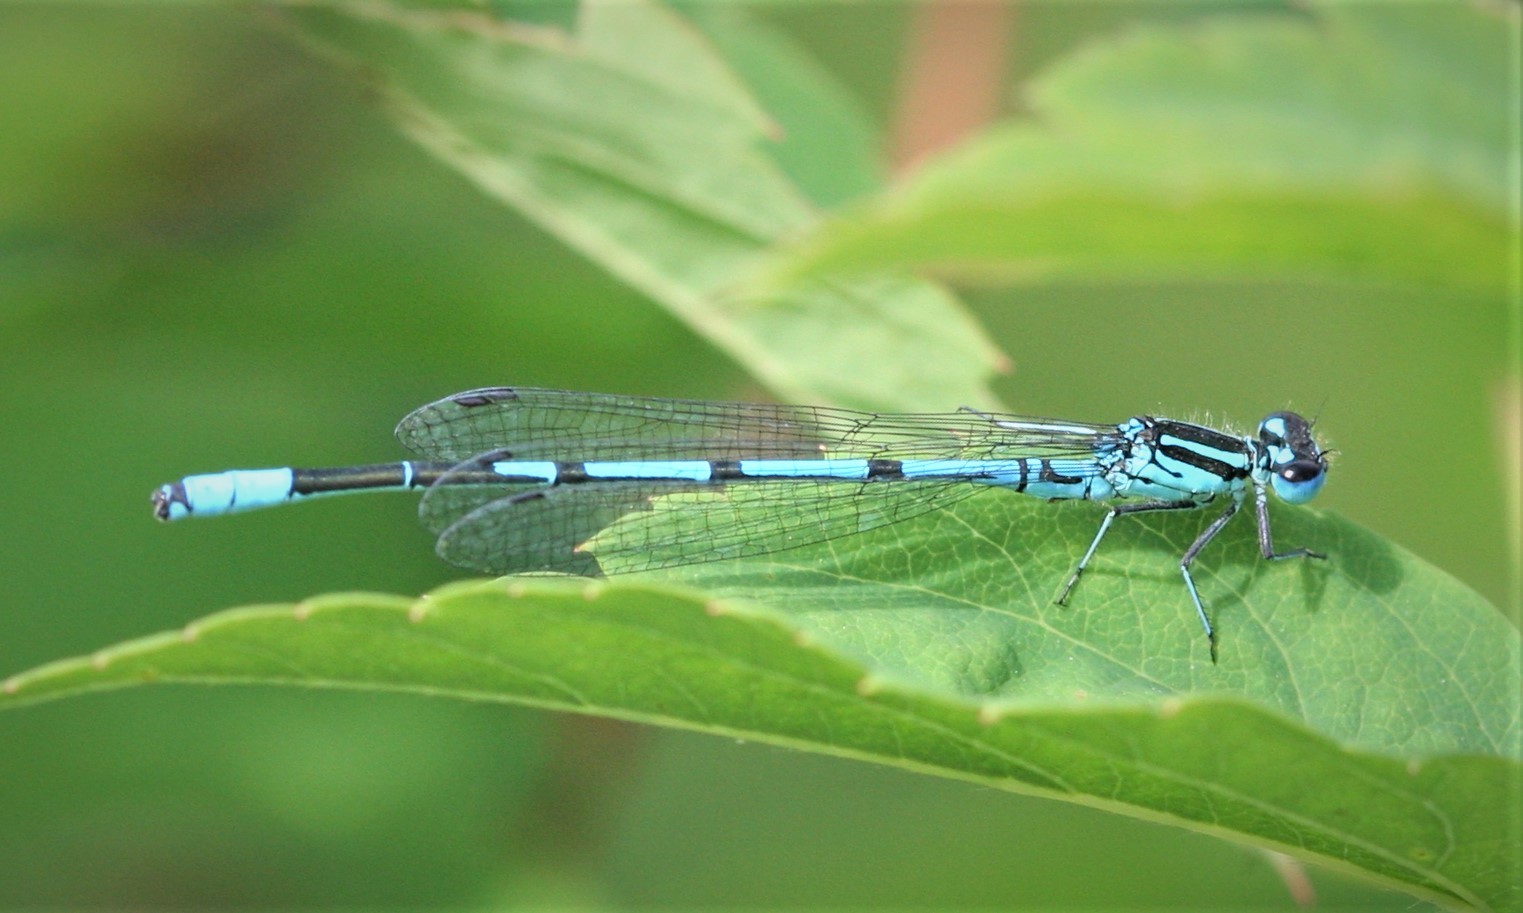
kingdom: Animalia
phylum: Arthropoda
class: Insecta
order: Odonata
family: Coenagrionidae
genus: Coenagrion
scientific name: Coenagrion puella
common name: Azure damselfly
